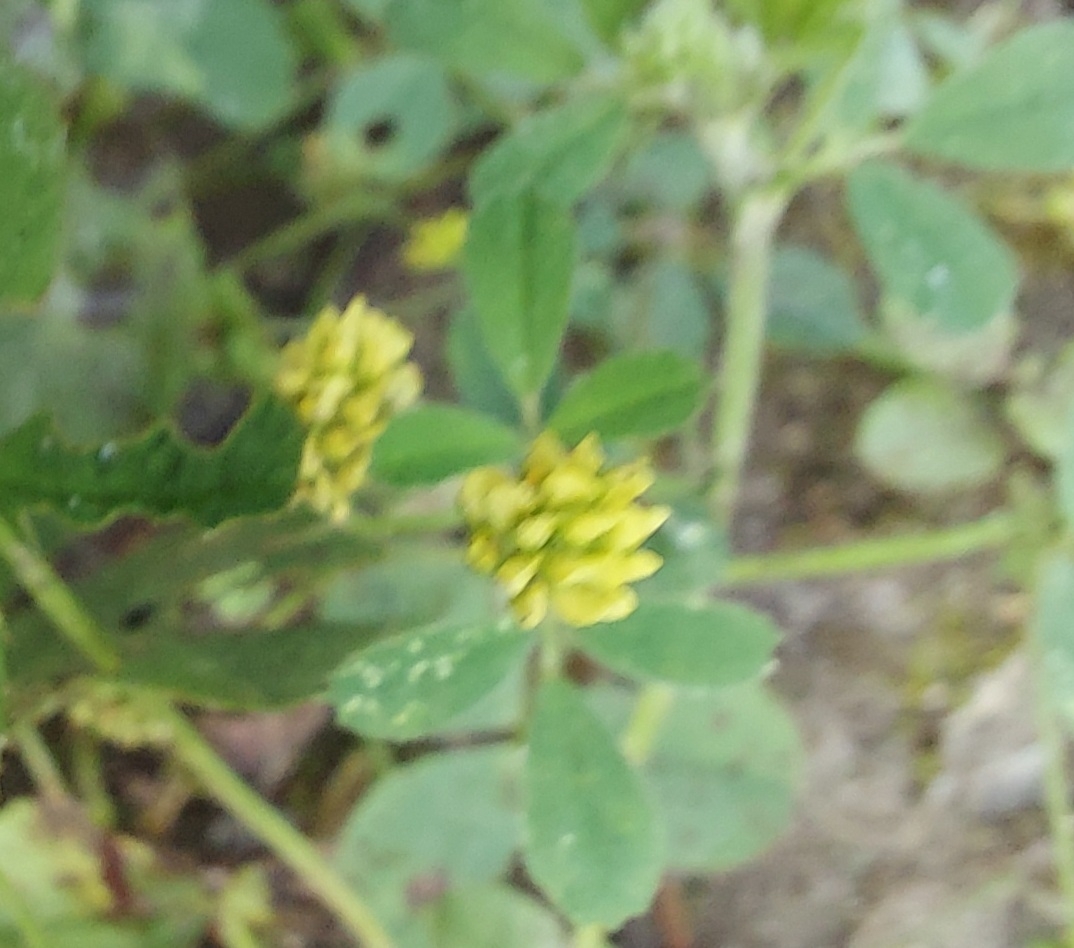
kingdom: Plantae
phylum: Tracheophyta
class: Magnoliopsida
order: Fabales
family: Fabaceae
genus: Medicago
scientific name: Medicago lupulina
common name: Black medick
